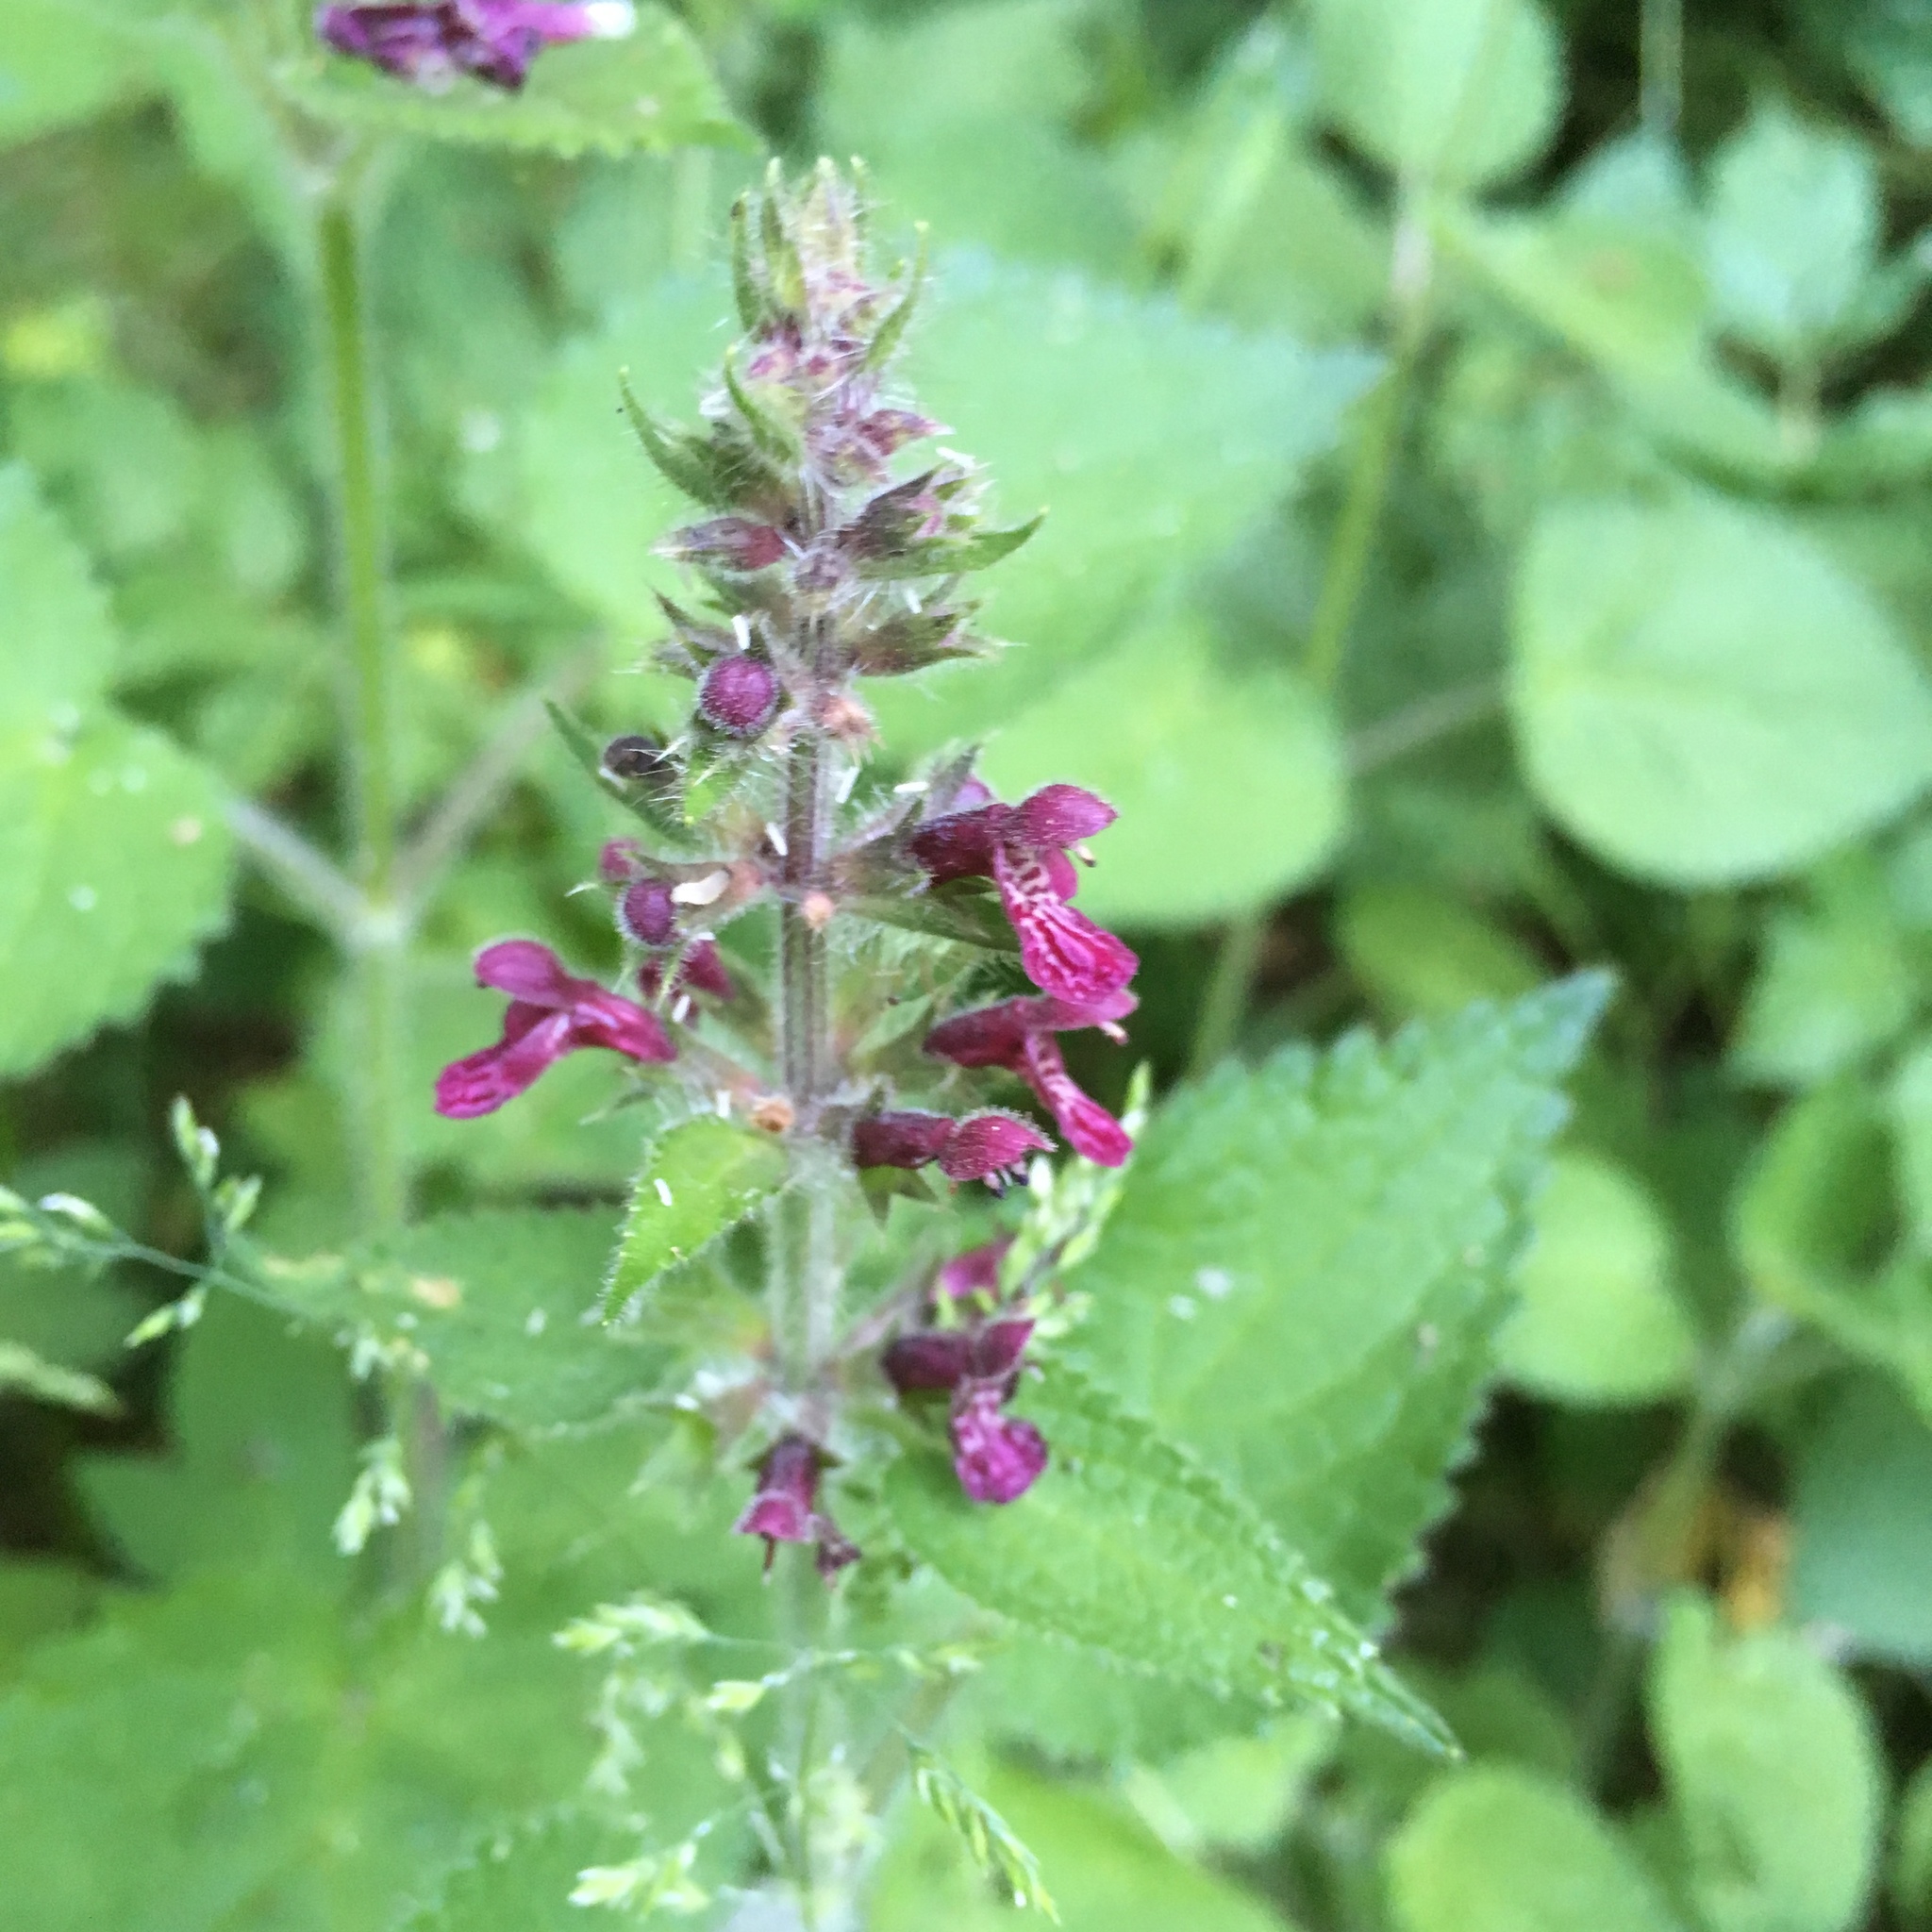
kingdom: Plantae
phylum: Tracheophyta
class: Magnoliopsida
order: Lamiales
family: Lamiaceae
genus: Stachys
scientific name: Stachys sylvatica
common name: Hedge woundwort
